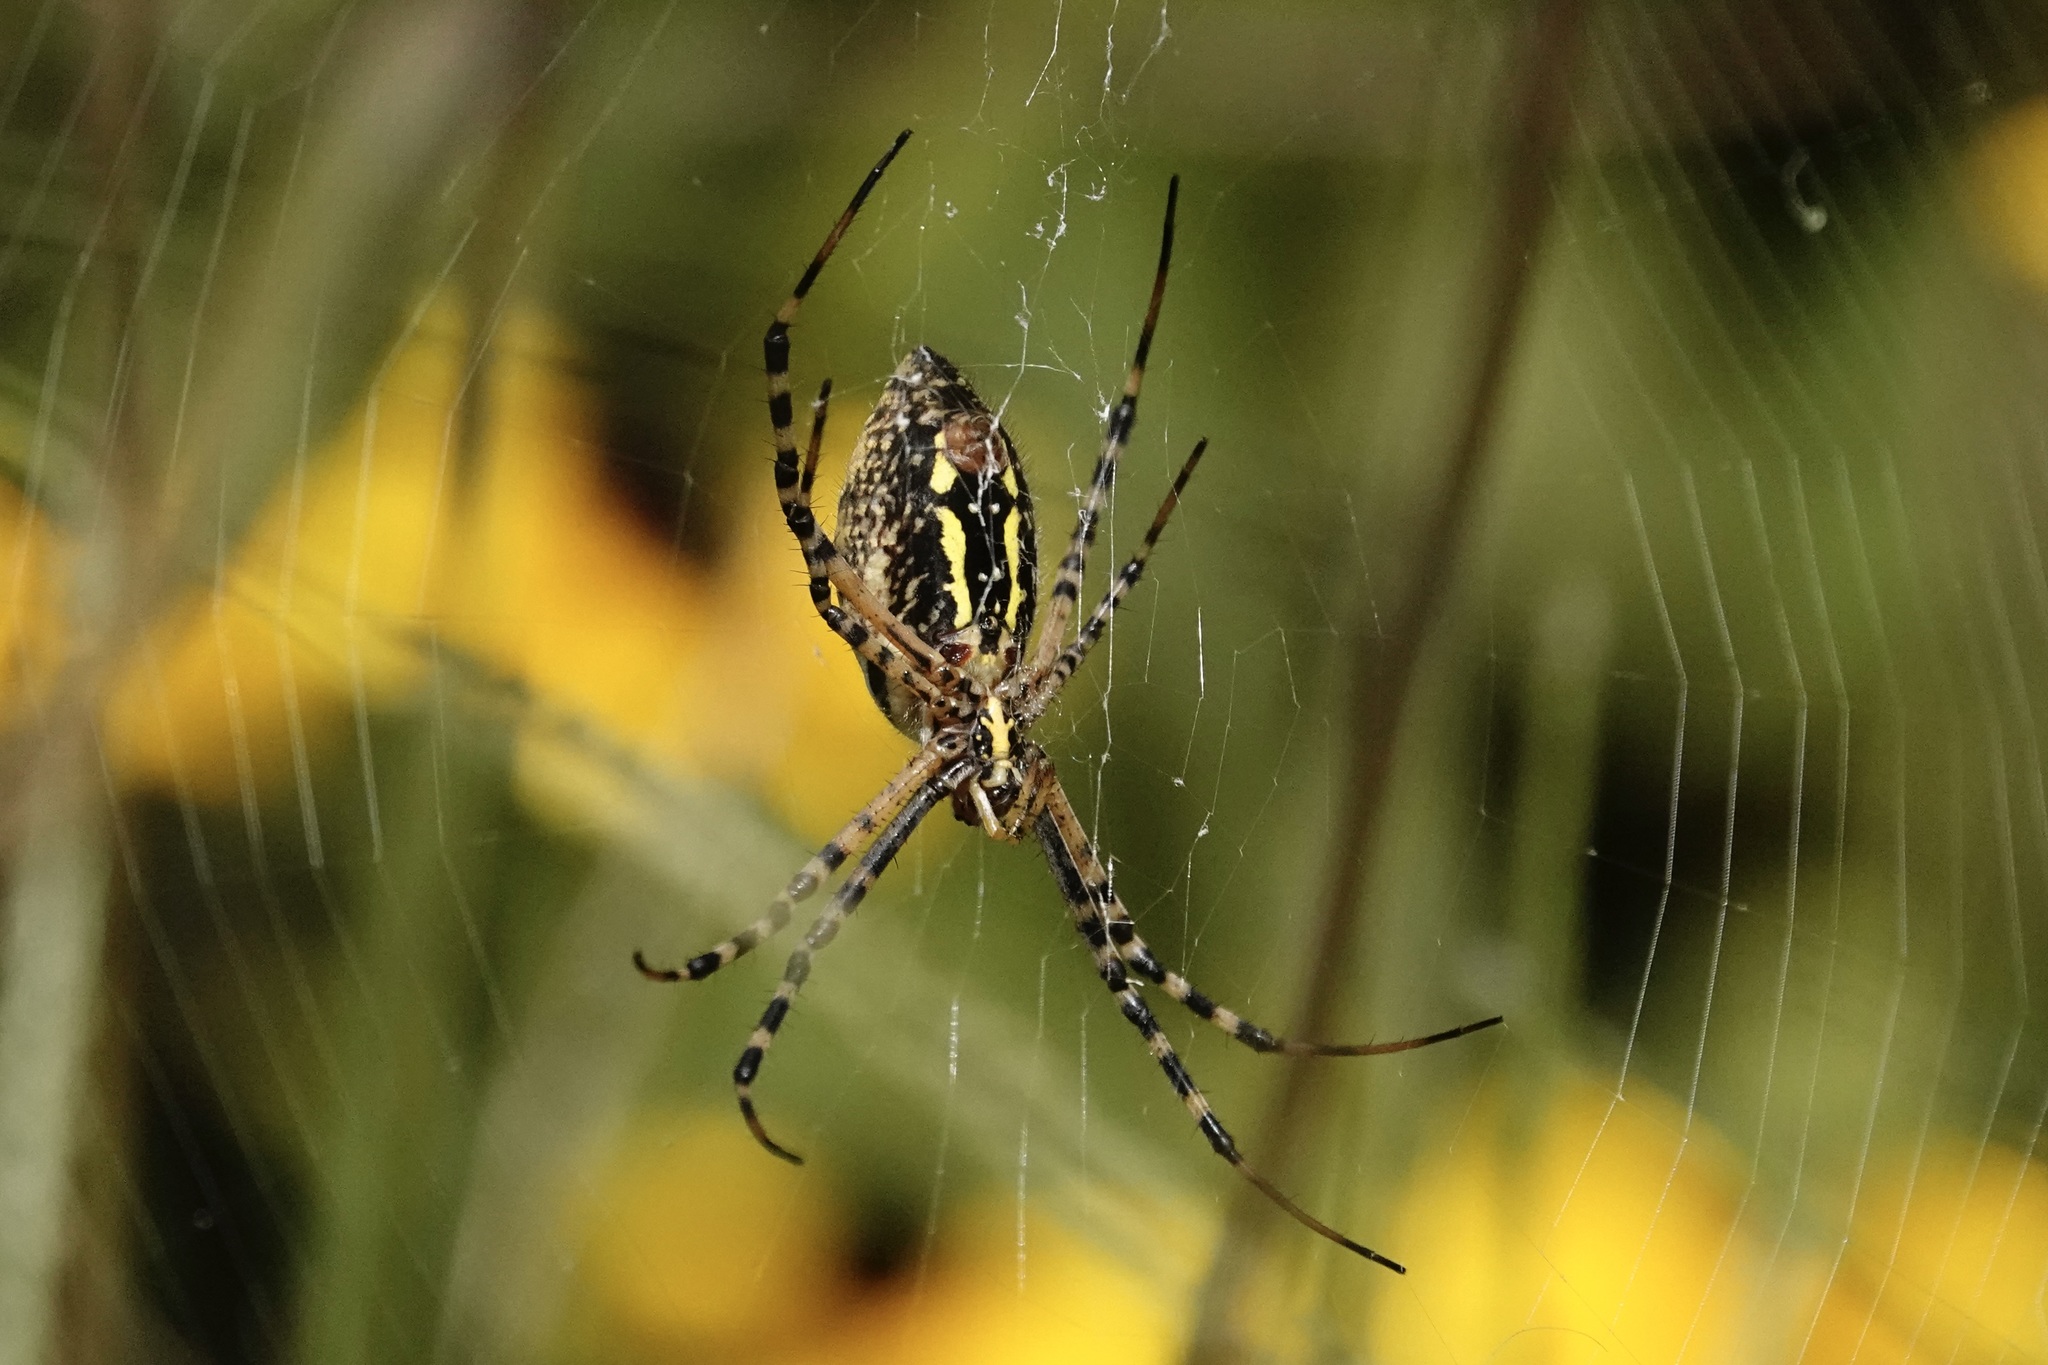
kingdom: Animalia
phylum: Arthropoda
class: Arachnida
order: Araneae
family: Araneidae
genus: Argiope
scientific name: Argiope trifasciata
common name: Banded garden spider
